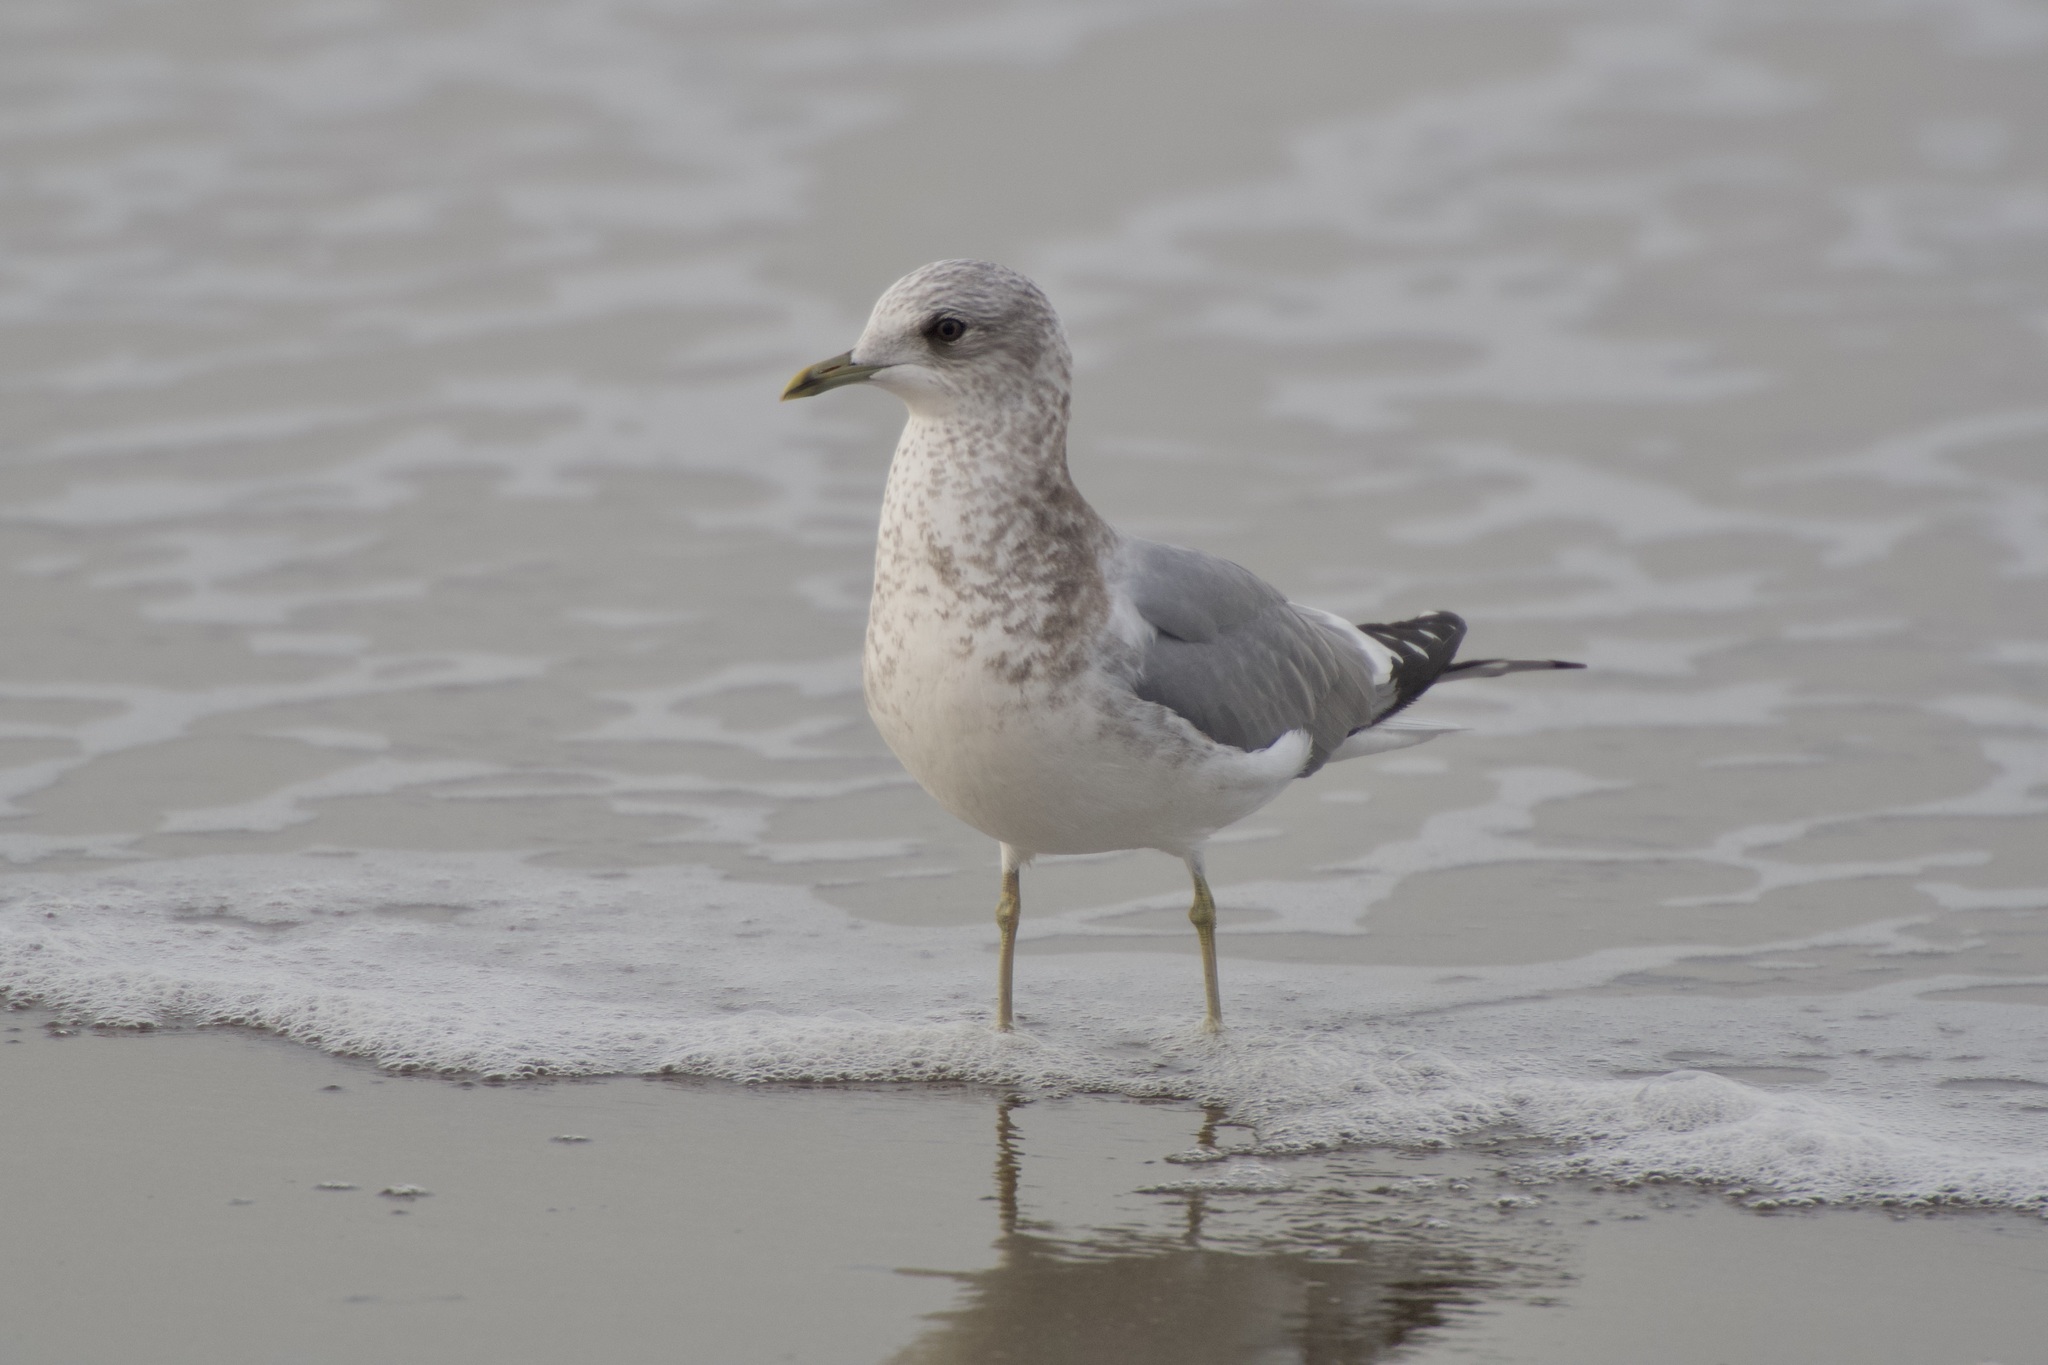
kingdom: Animalia
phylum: Chordata
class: Aves
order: Charadriiformes
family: Laridae
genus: Larus
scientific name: Larus brachyrhynchus
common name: Short-billed gull
